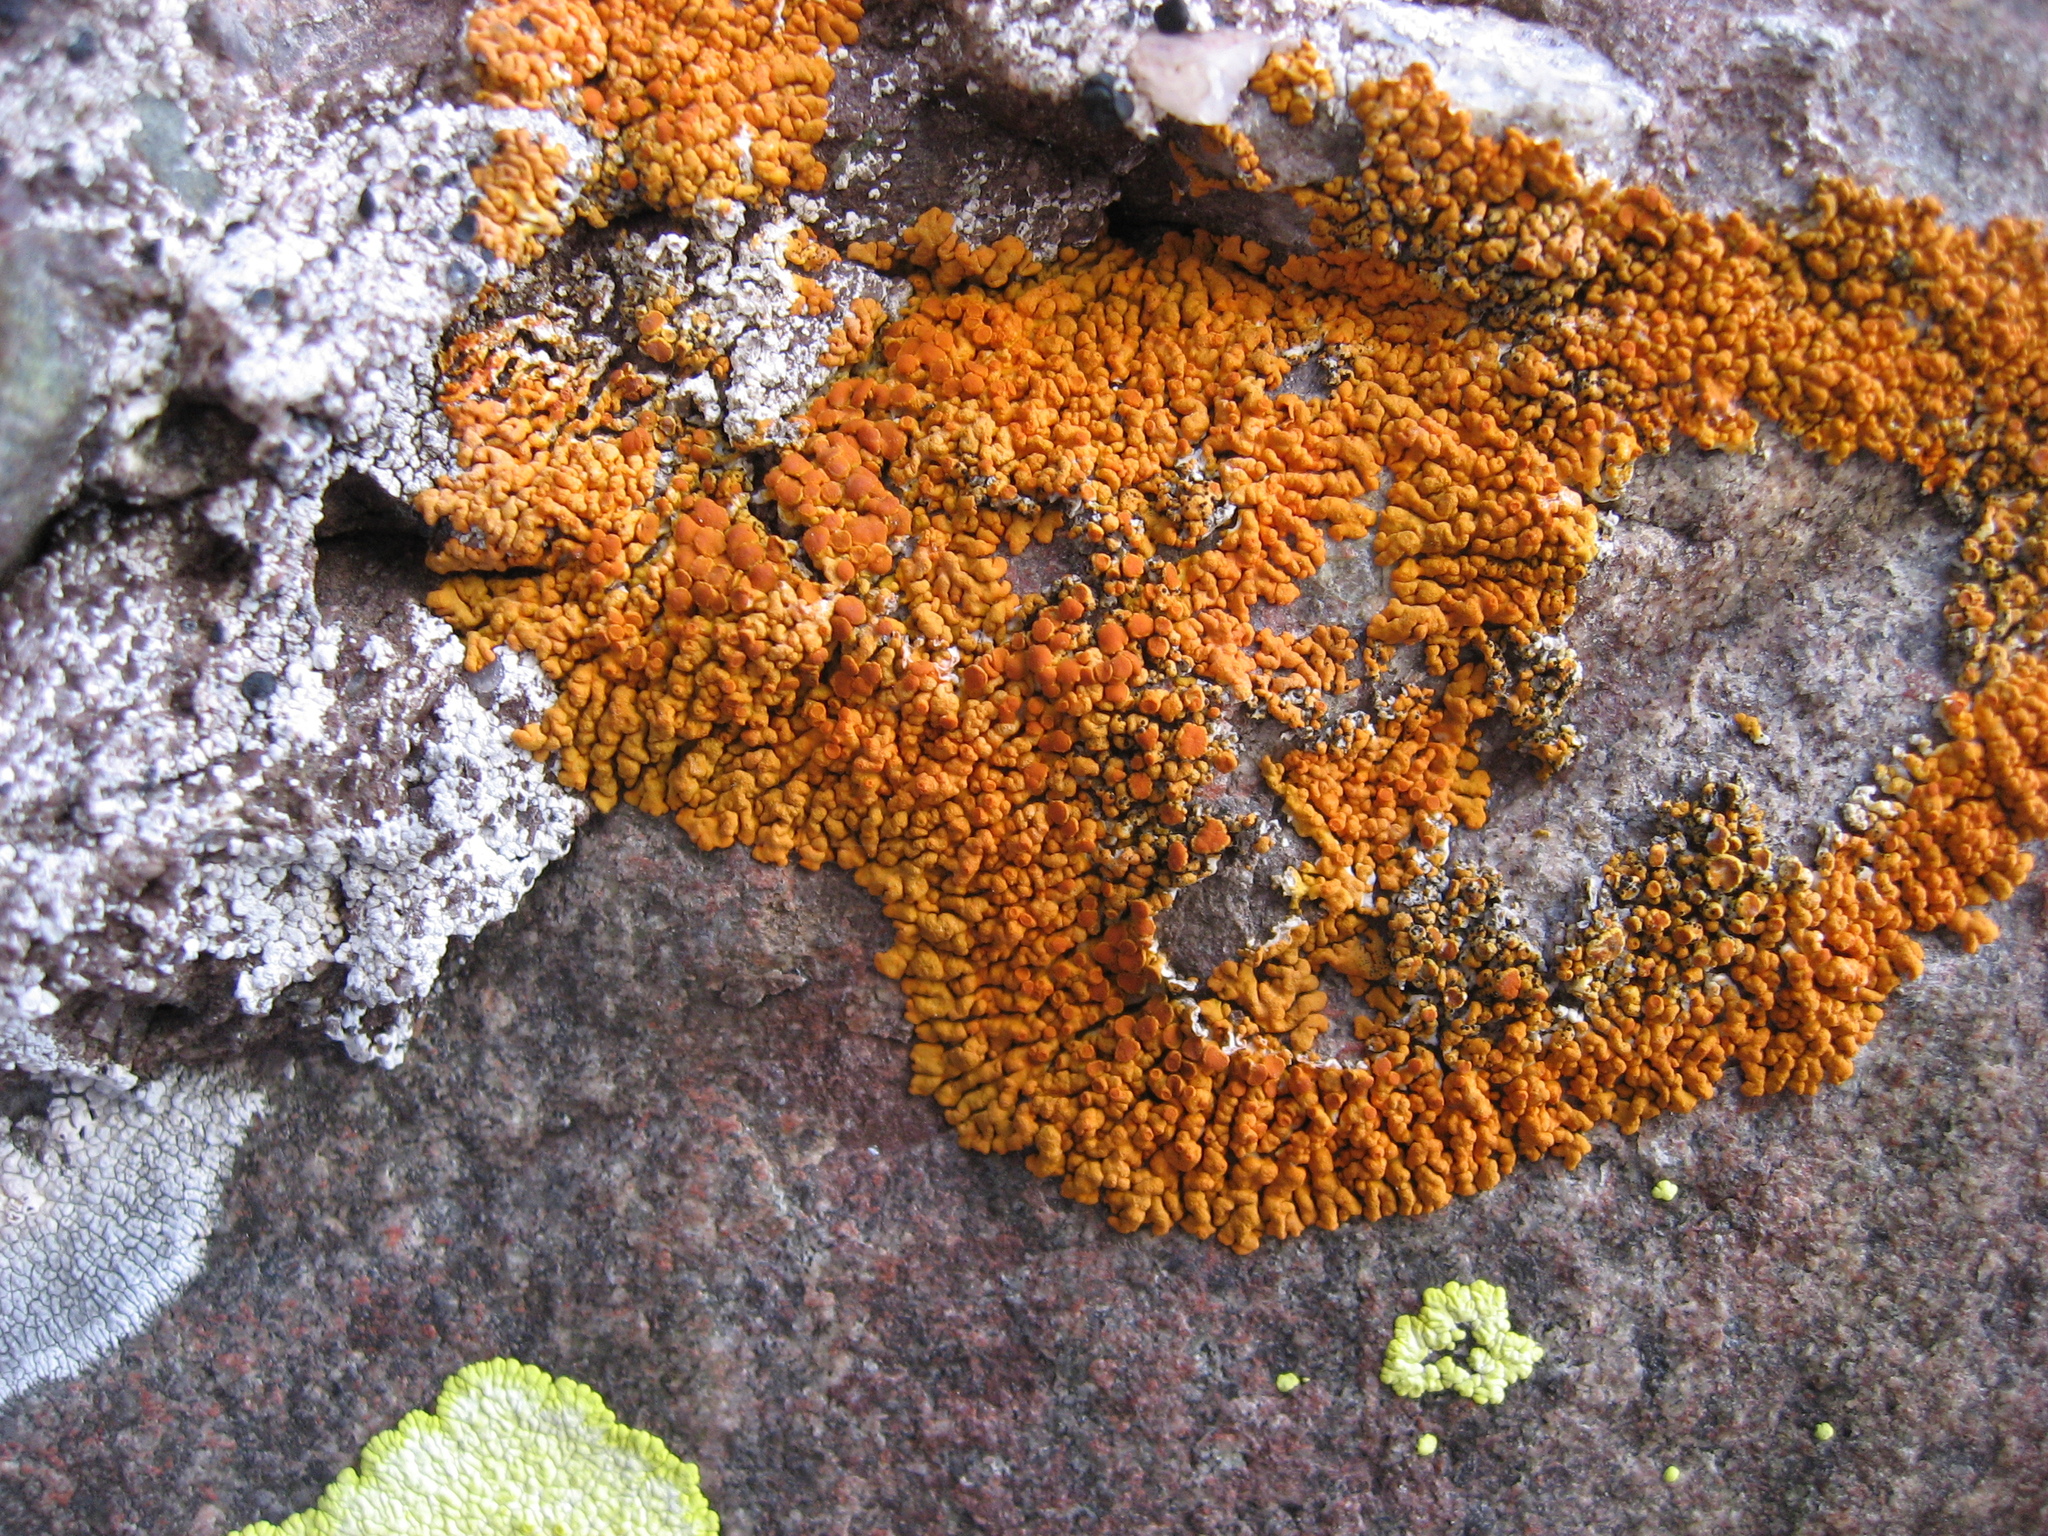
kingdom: Fungi
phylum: Ascomycota
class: Lecanoromycetes
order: Teloschistales
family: Teloschistaceae
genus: Xanthoria
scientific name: Xanthoria elegans
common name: Elegant sunburst lichen
